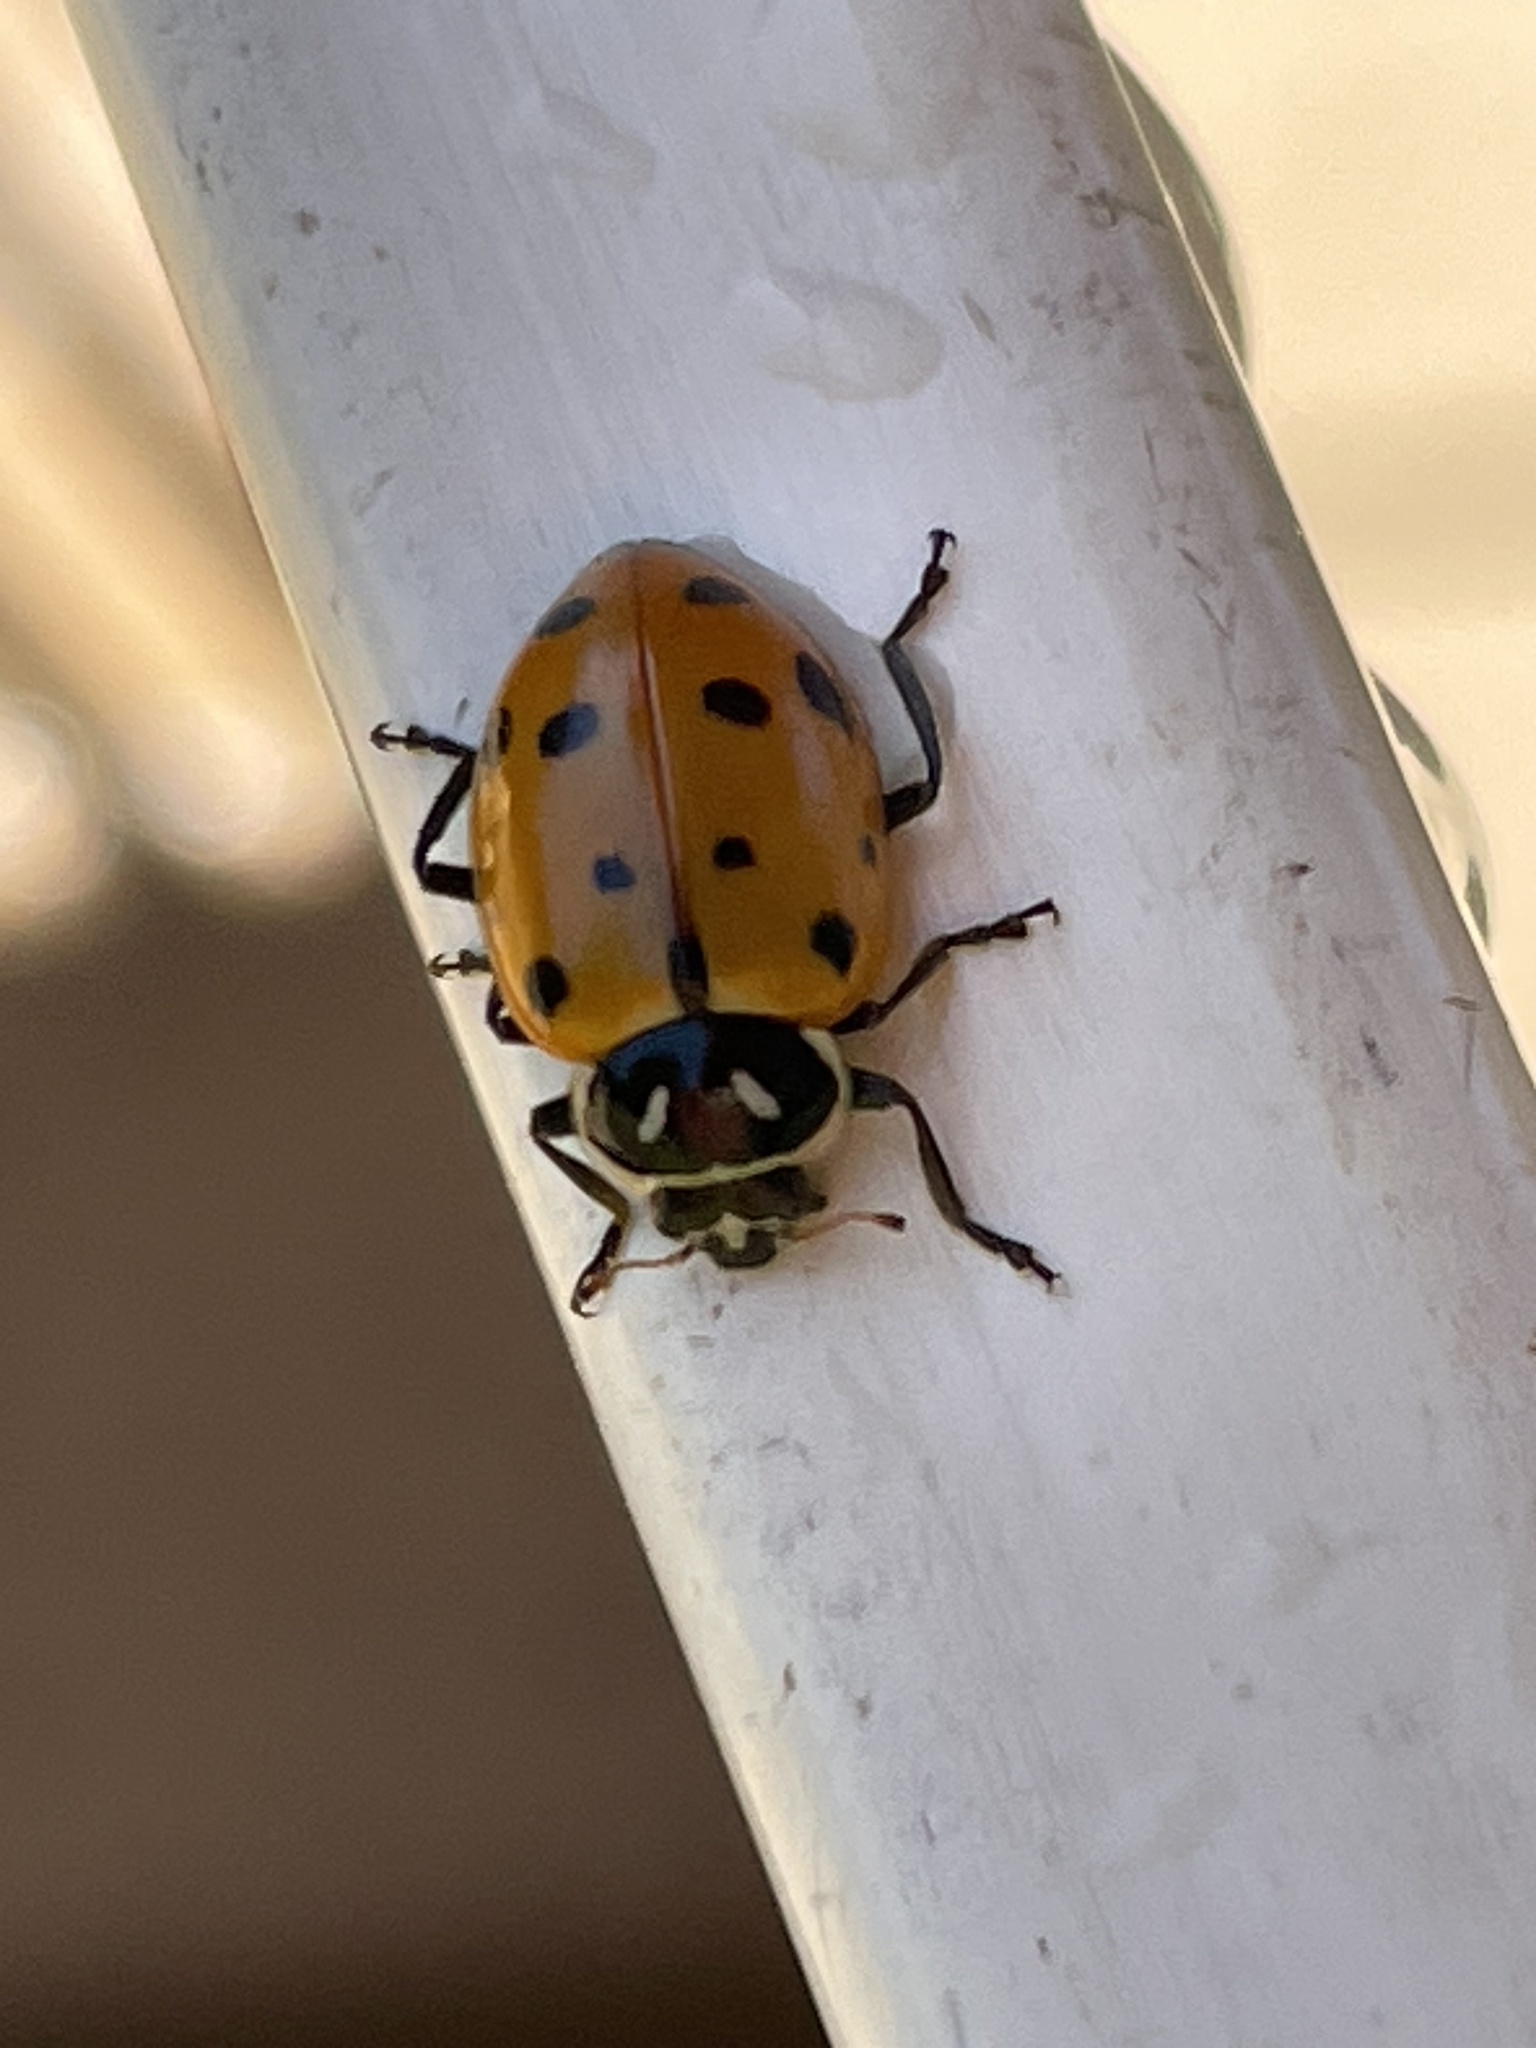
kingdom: Animalia
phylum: Arthropoda
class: Insecta
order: Coleoptera
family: Coccinellidae
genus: Hippodamia
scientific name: Hippodamia convergens
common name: Convergent lady beetle
